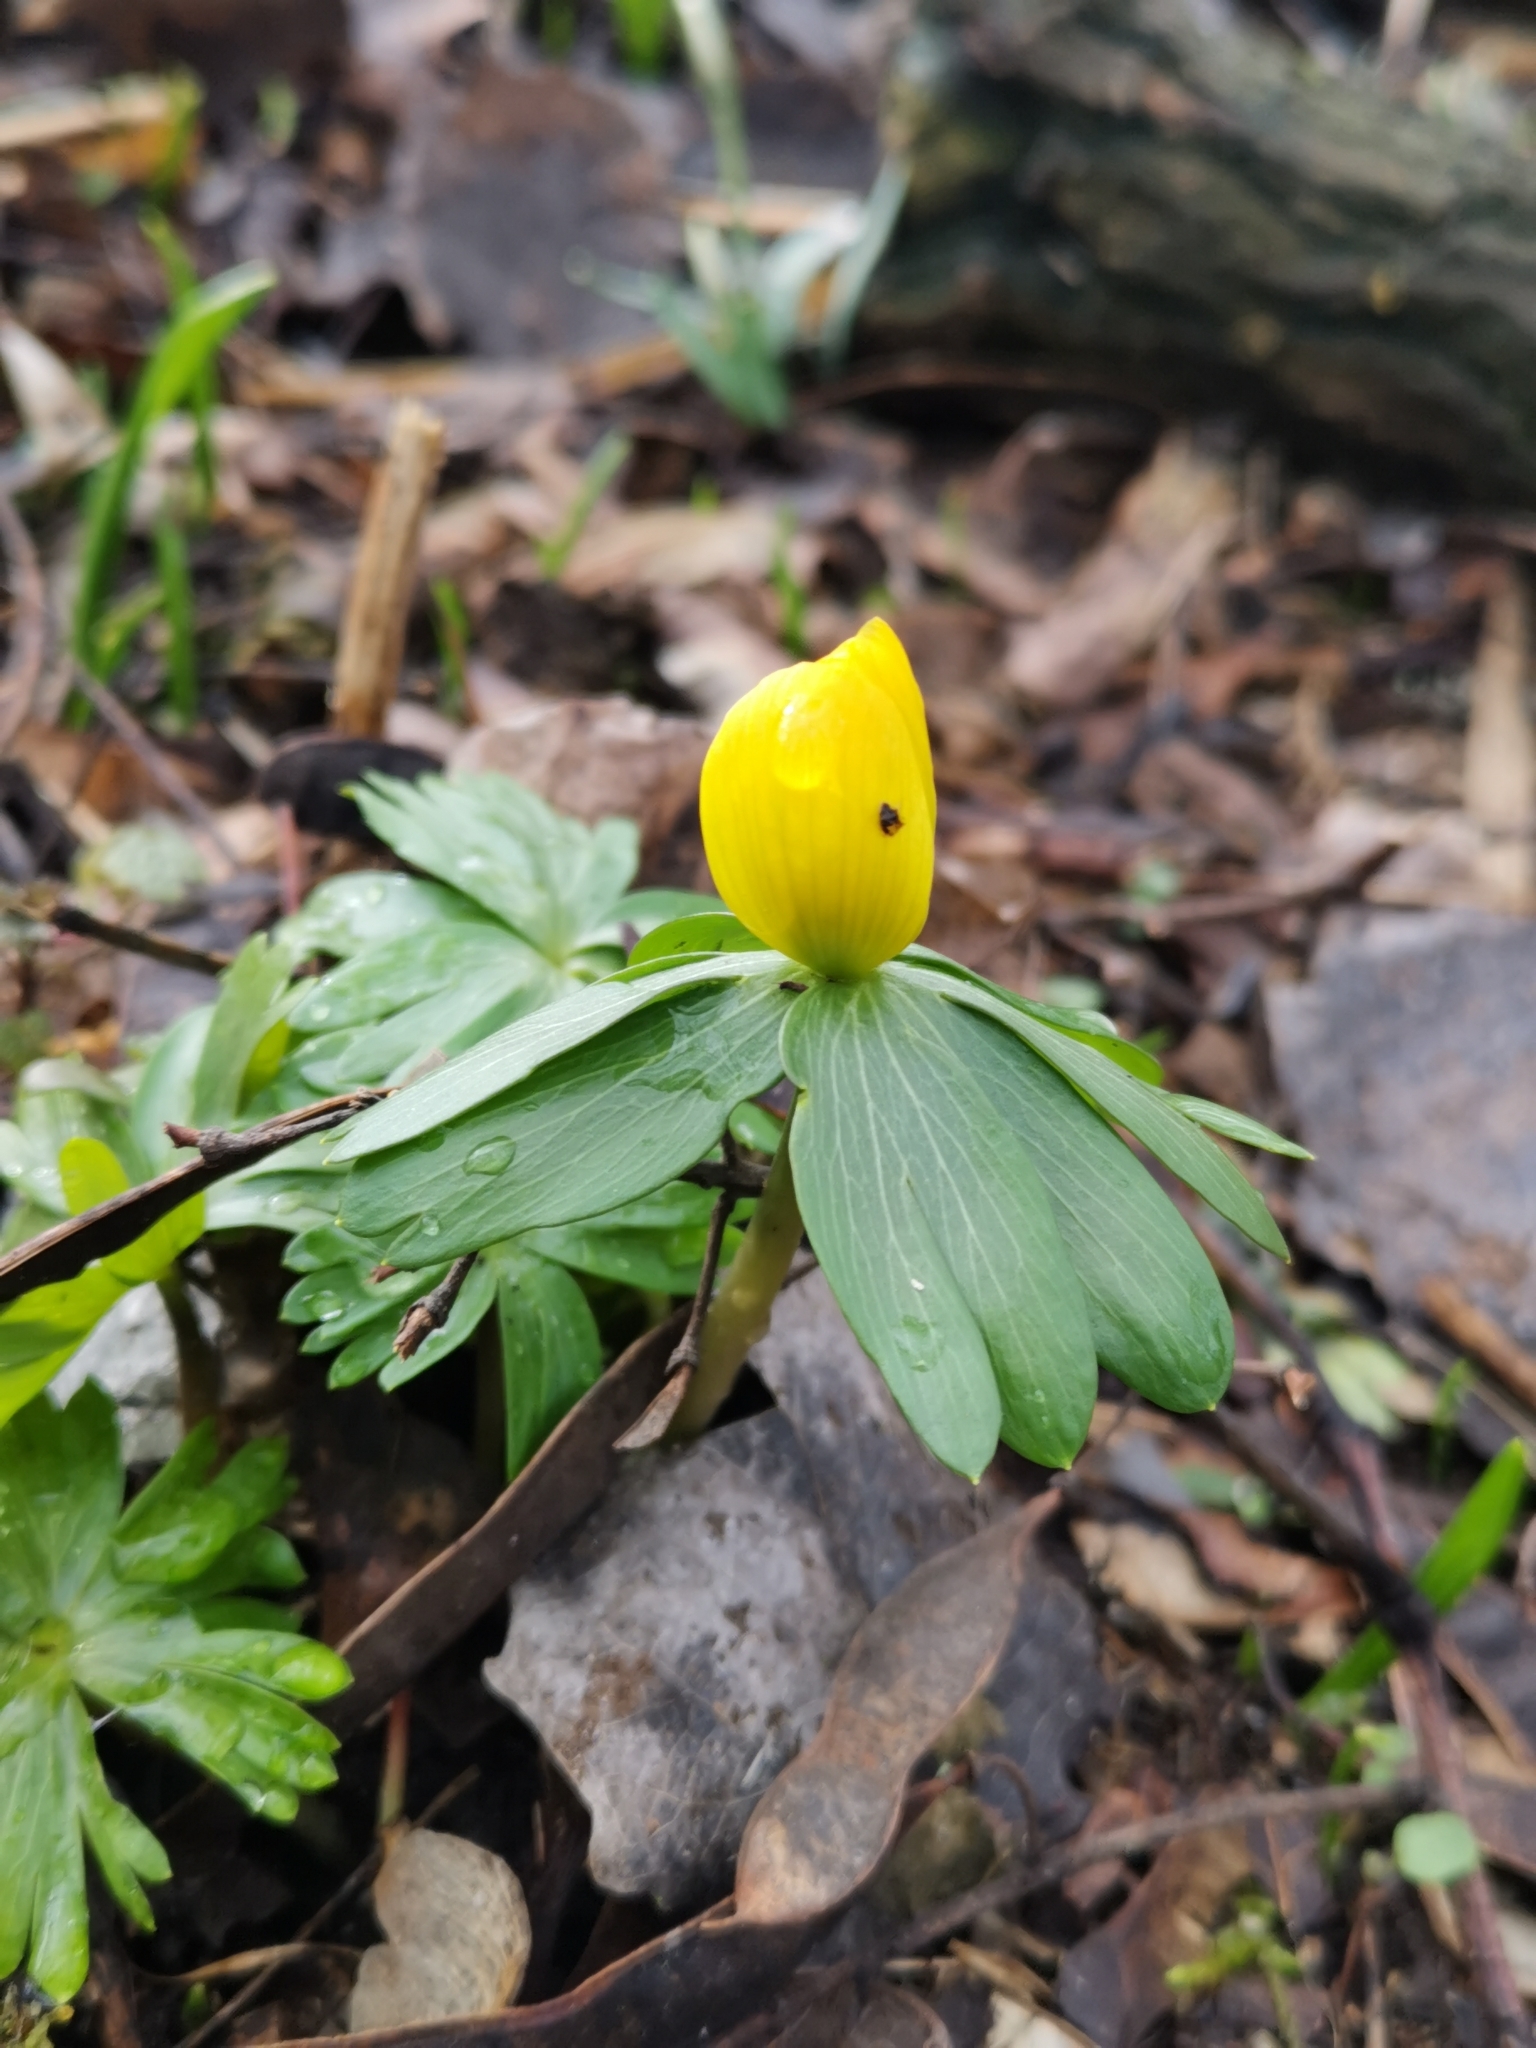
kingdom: Plantae
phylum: Tracheophyta
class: Magnoliopsida
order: Ranunculales
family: Ranunculaceae
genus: Eranthis
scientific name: Eranthis hyemalis
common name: Winter aconite
